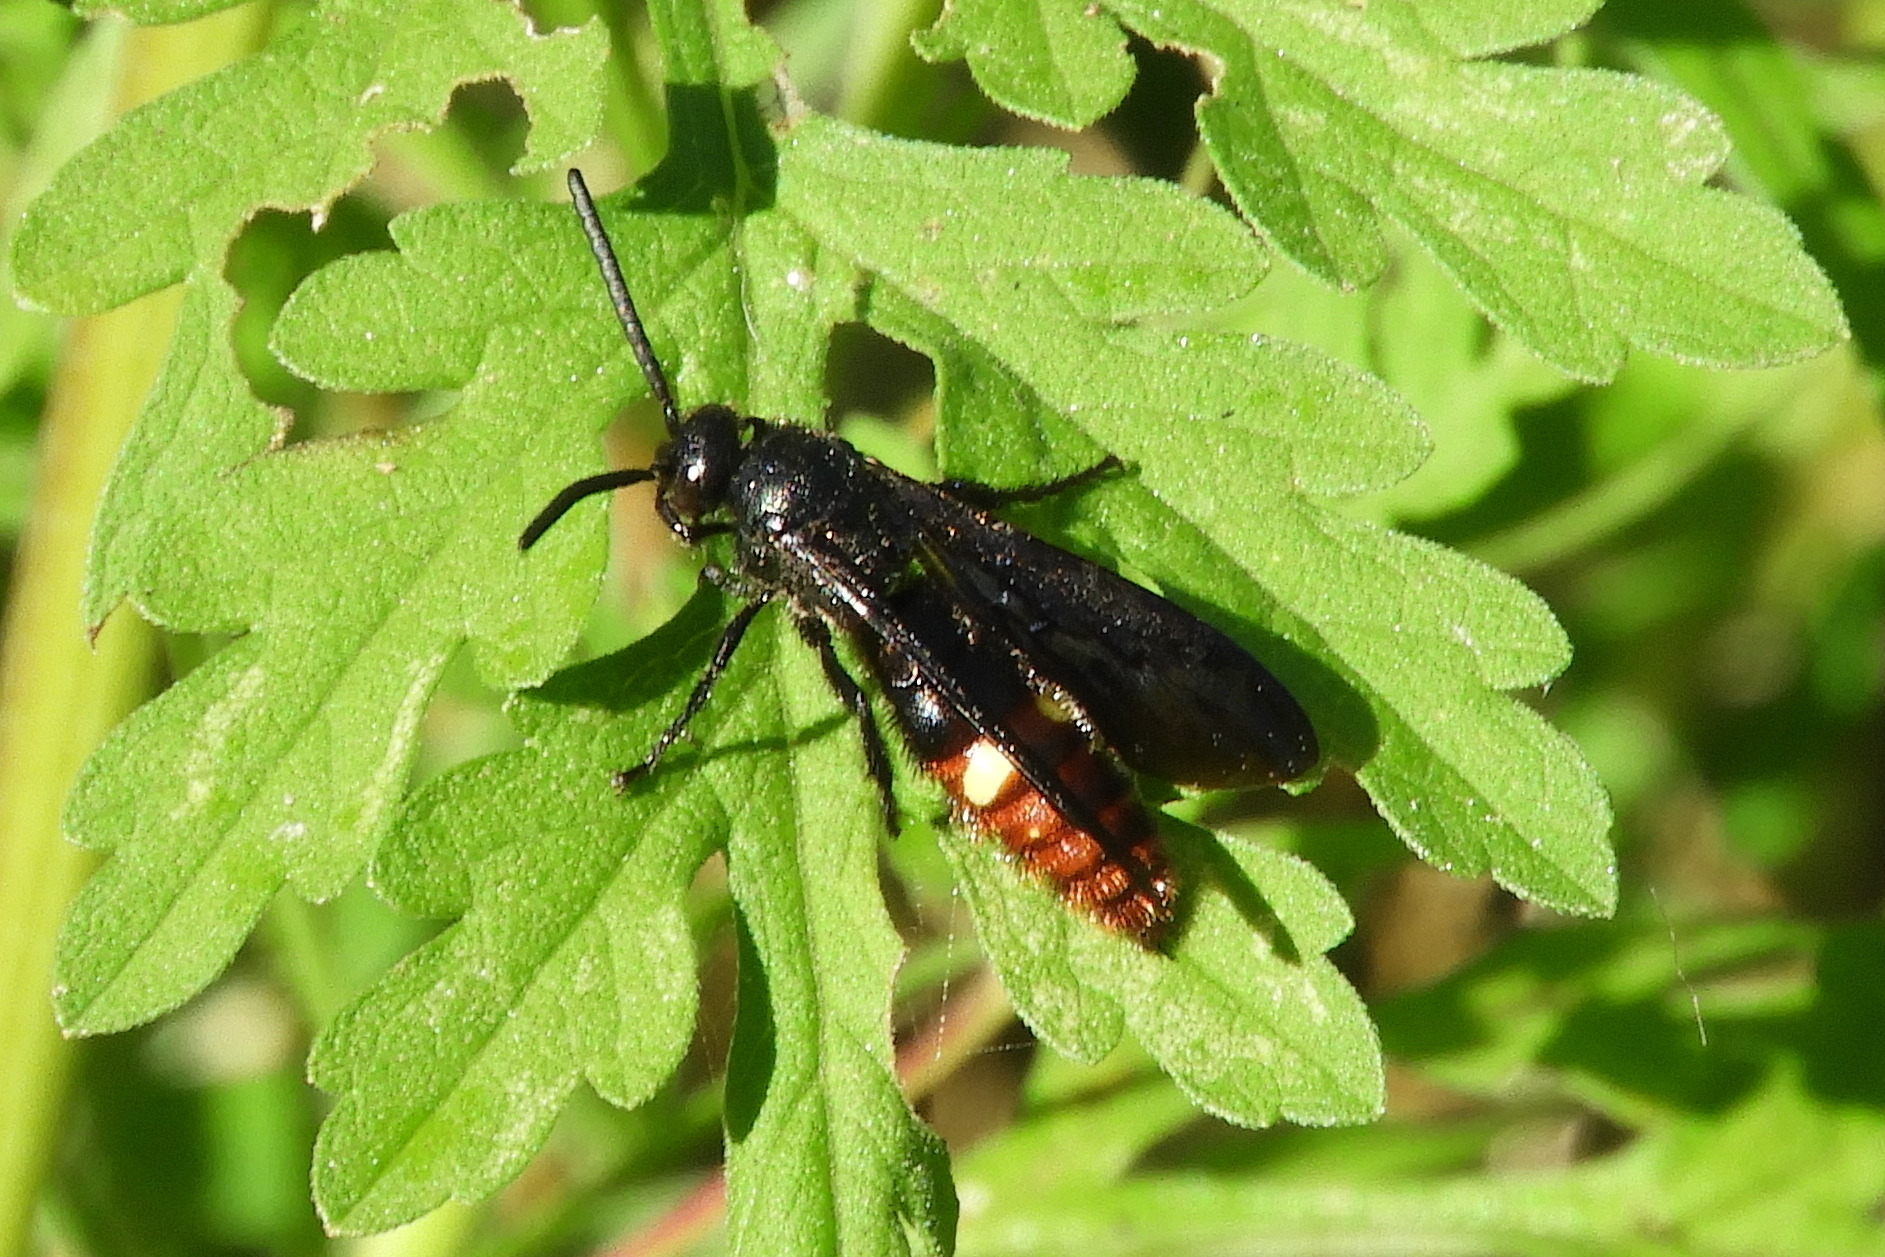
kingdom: Animalia
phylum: Arthropoda
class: Insecta
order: Hymenoptera
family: Scoliidae
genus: Scolia
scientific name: Scolia dubia
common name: Blue-winged scoliid wasp
